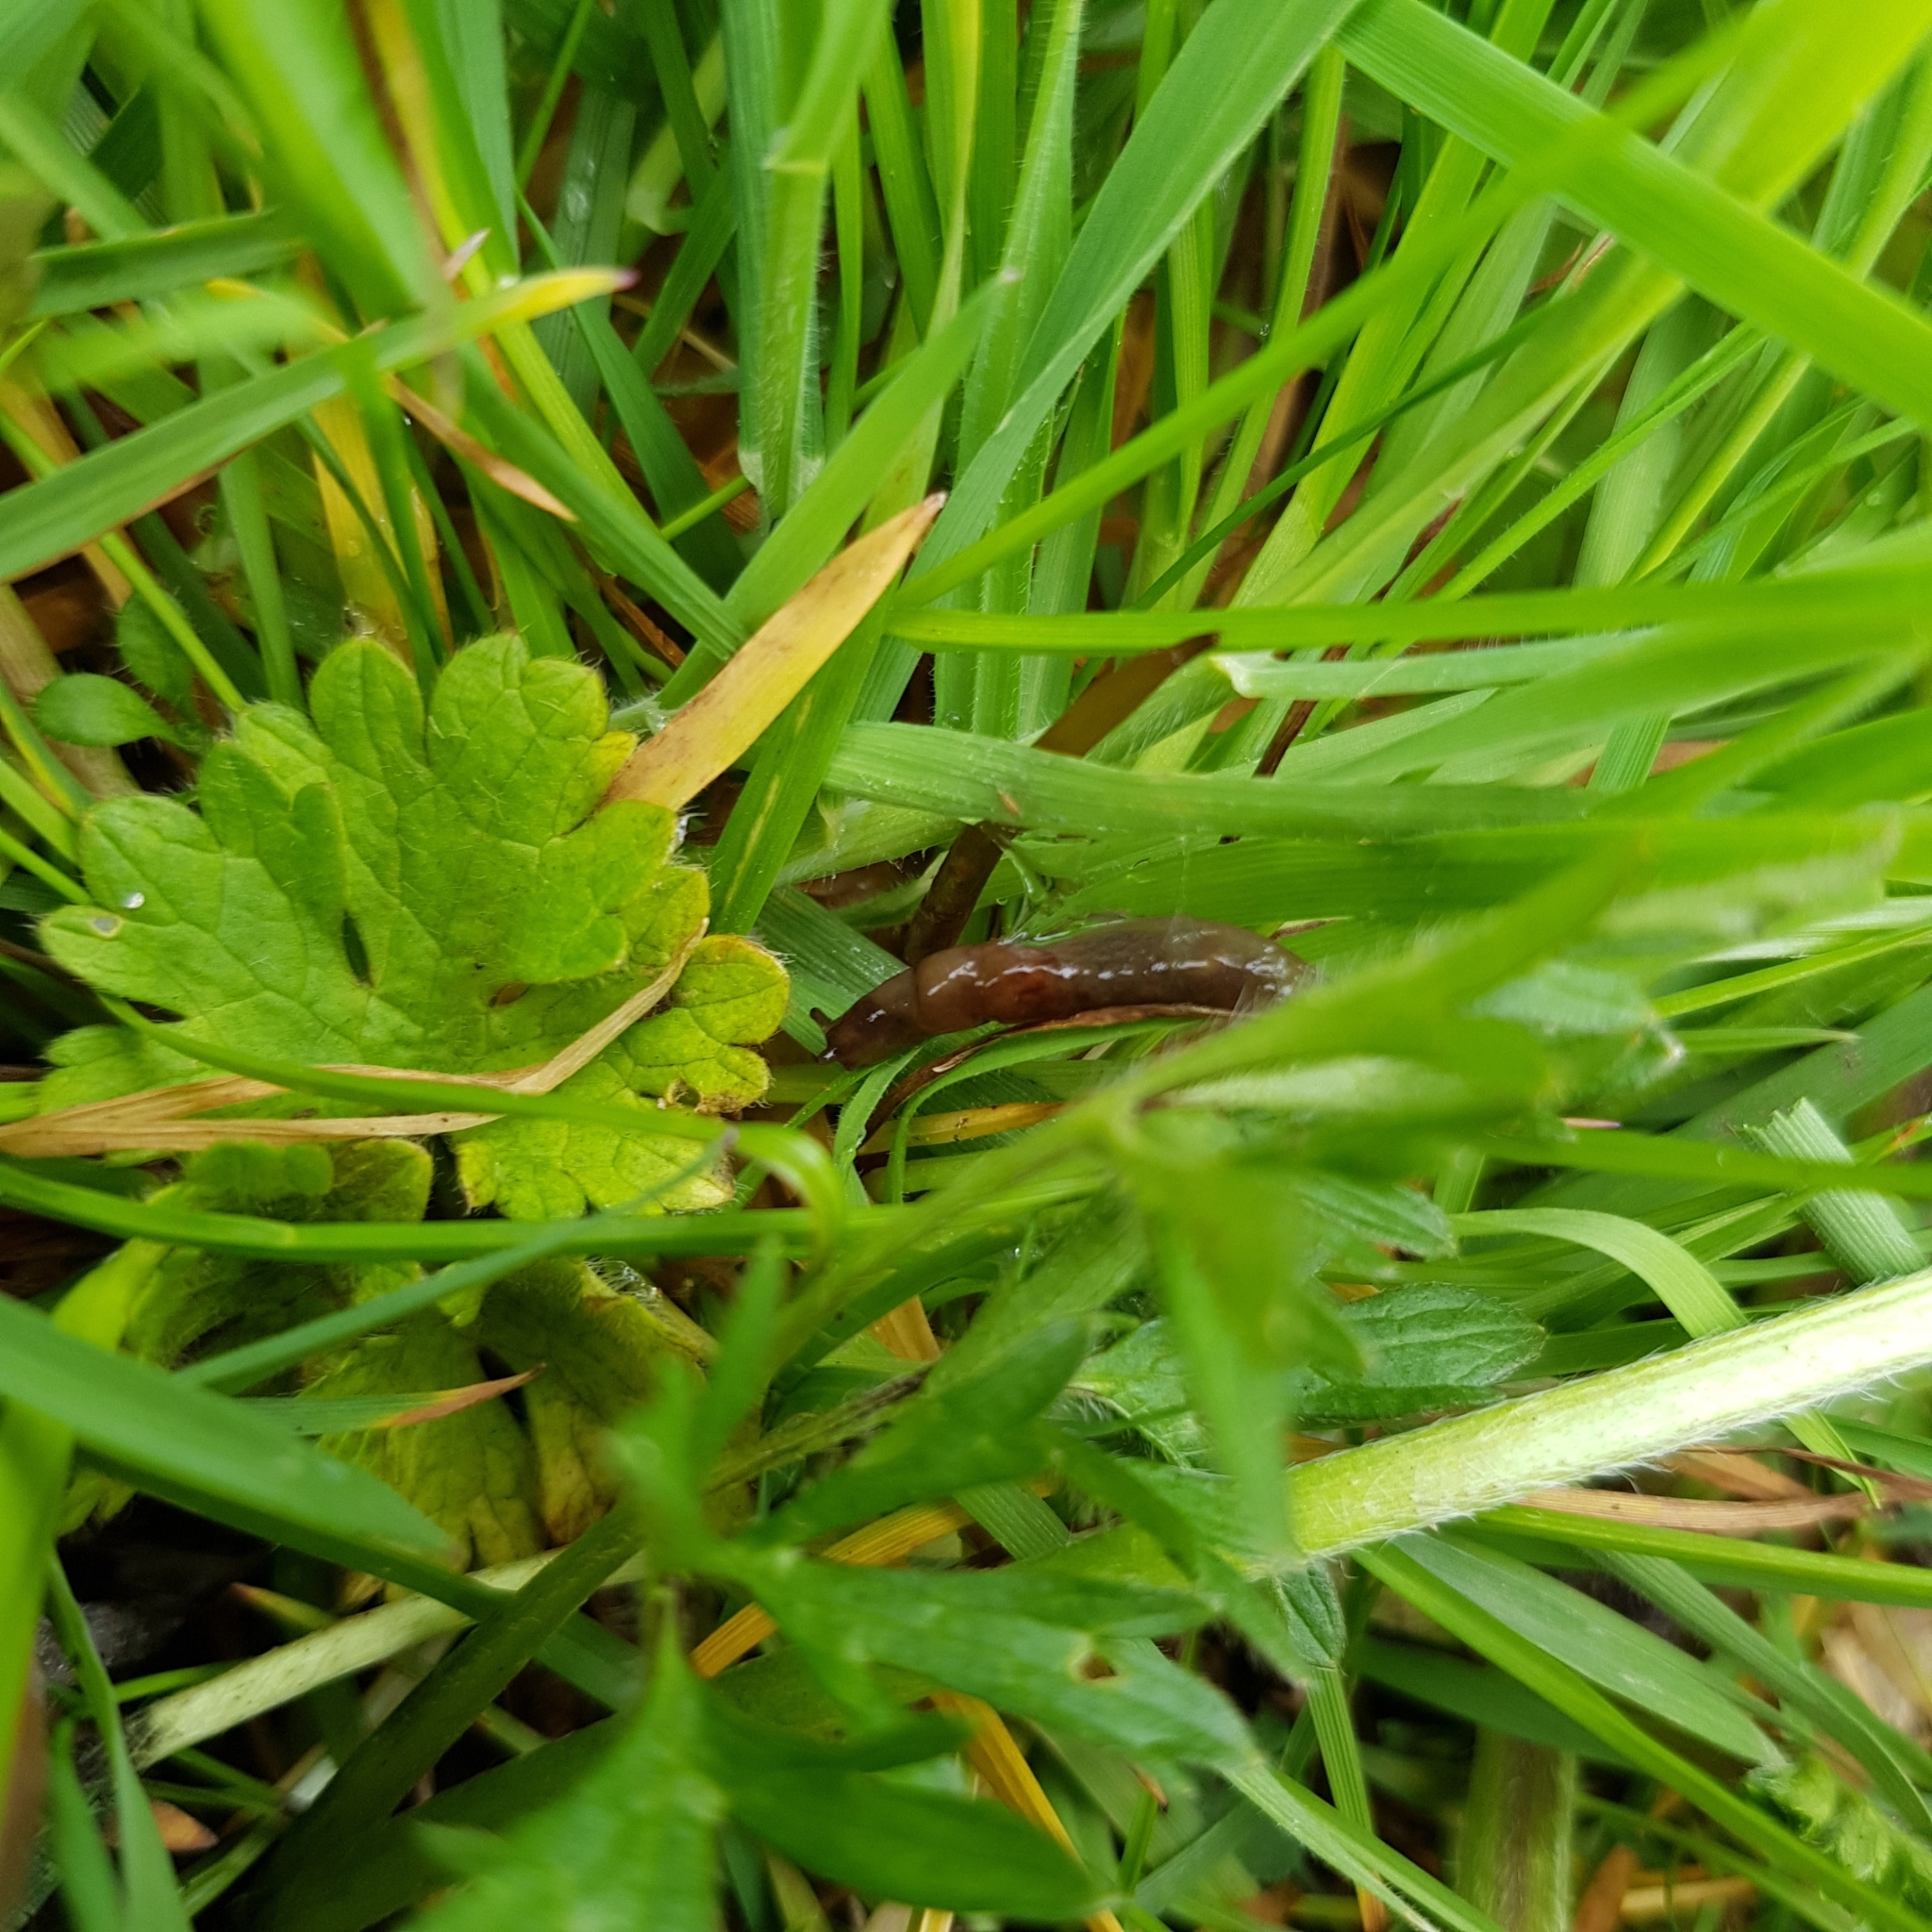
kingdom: Animalia
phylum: Mollusca
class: Gastropoda
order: Stylommatophora
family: Agriolimacidae
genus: Deroceras
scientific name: Deroceras laeve
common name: Marsh slug
